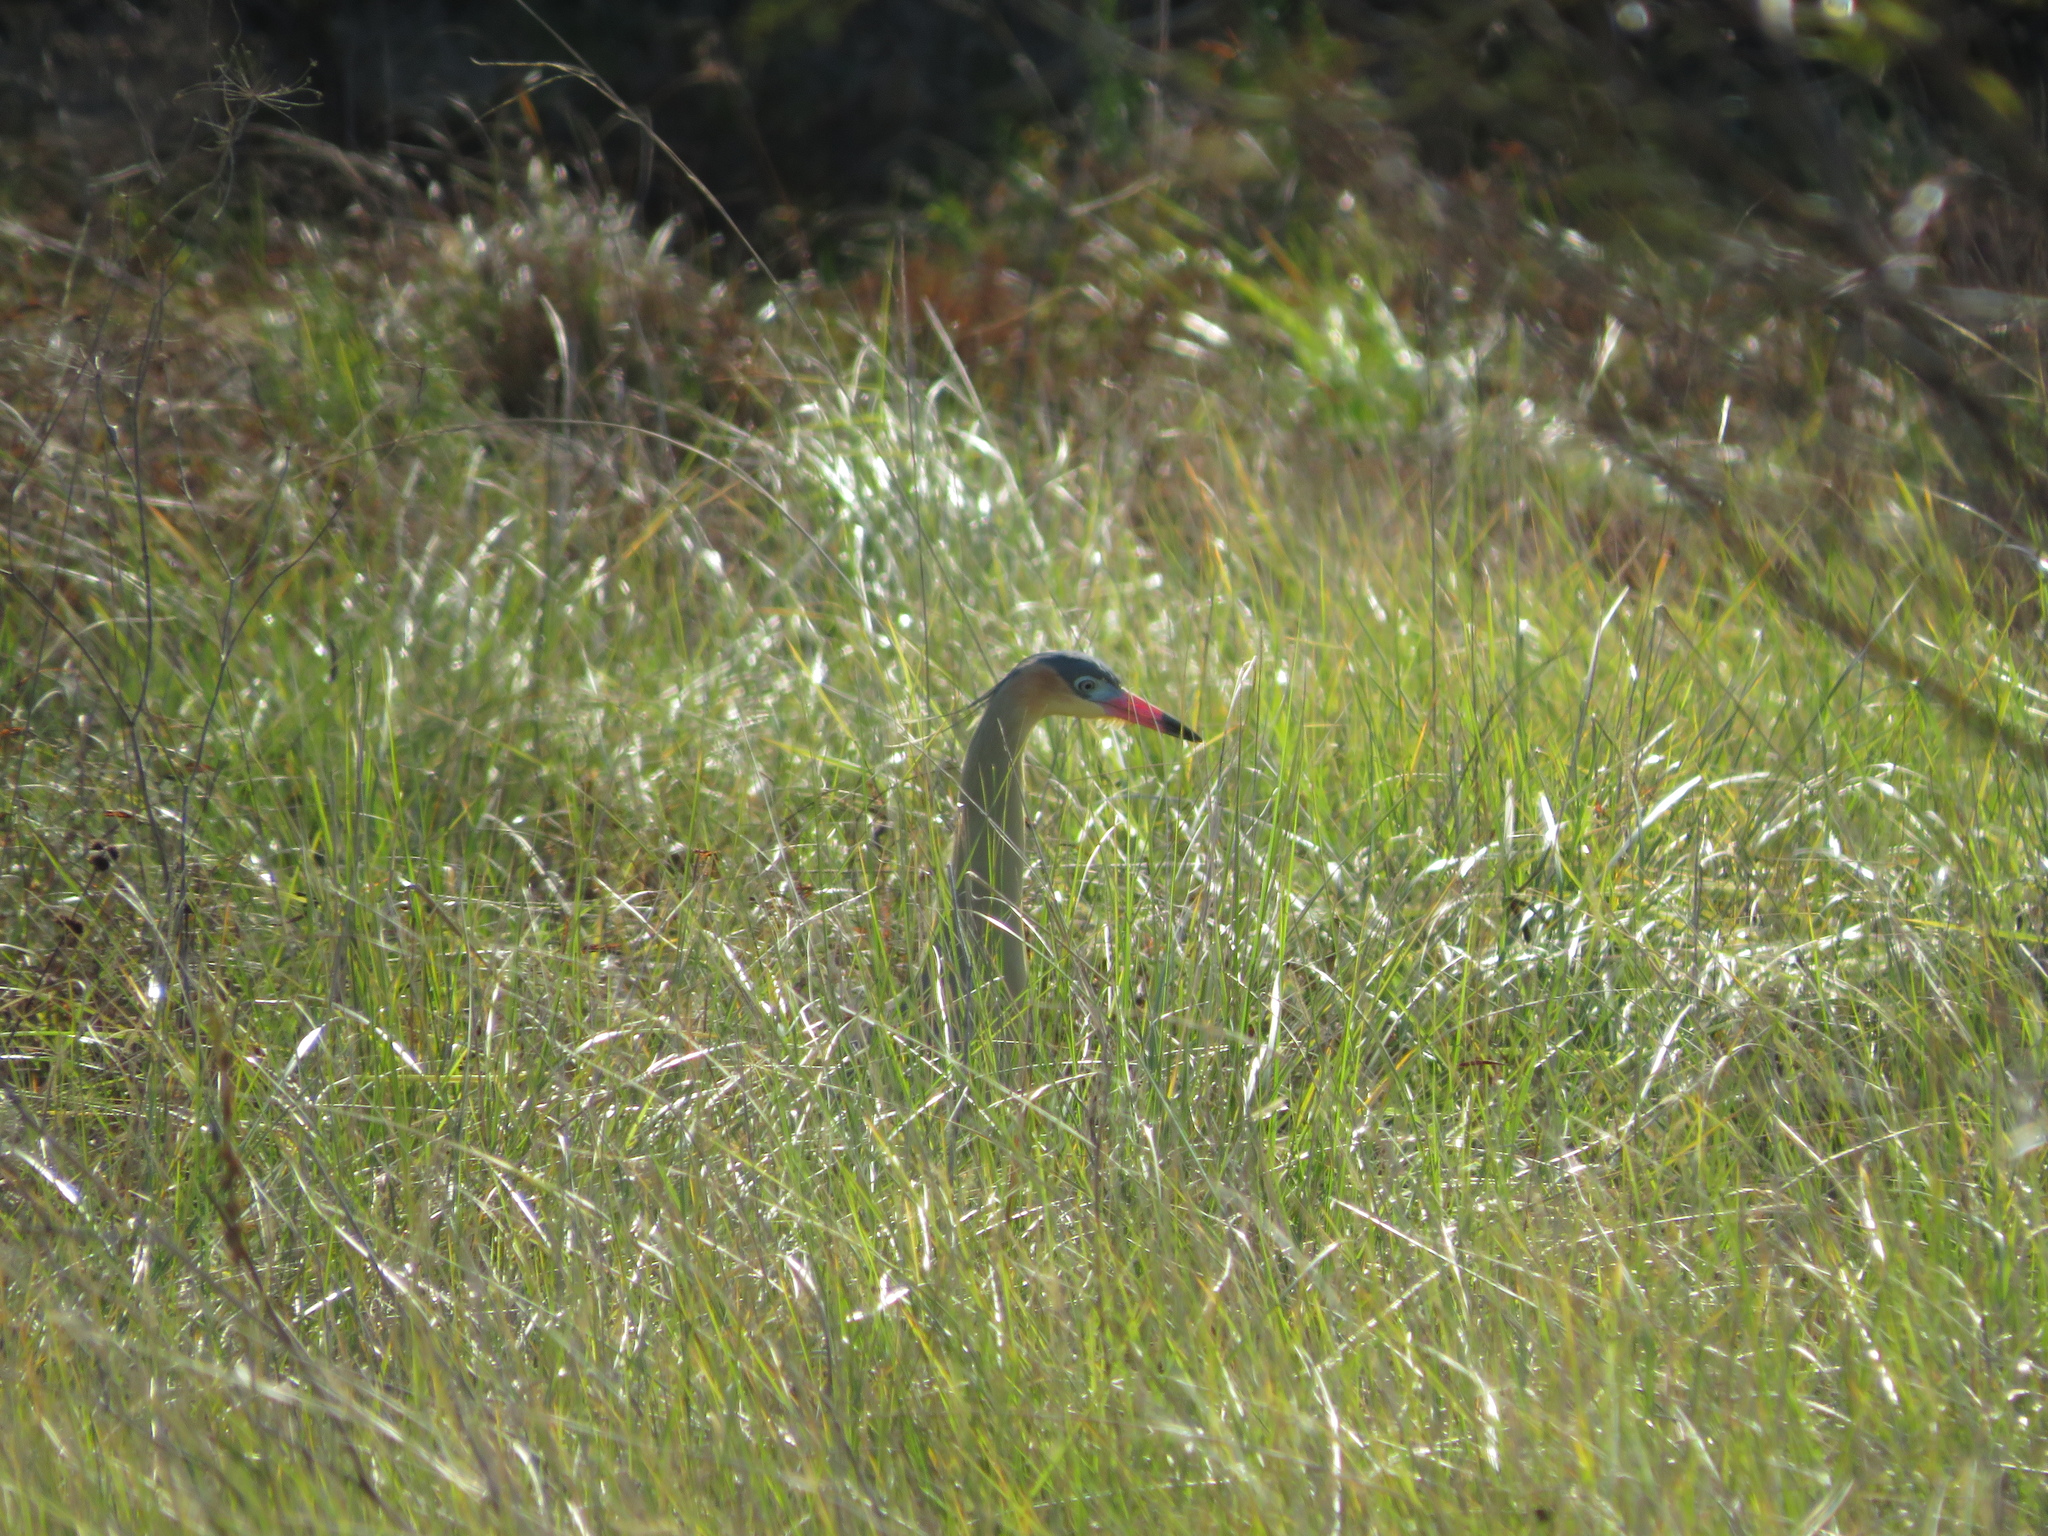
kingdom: Animalia
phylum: Chordata
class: Aves
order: Pelecaniformes
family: Ardeidae
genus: Syrigma
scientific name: Syrigma sibilatrix
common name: Whistling heron
